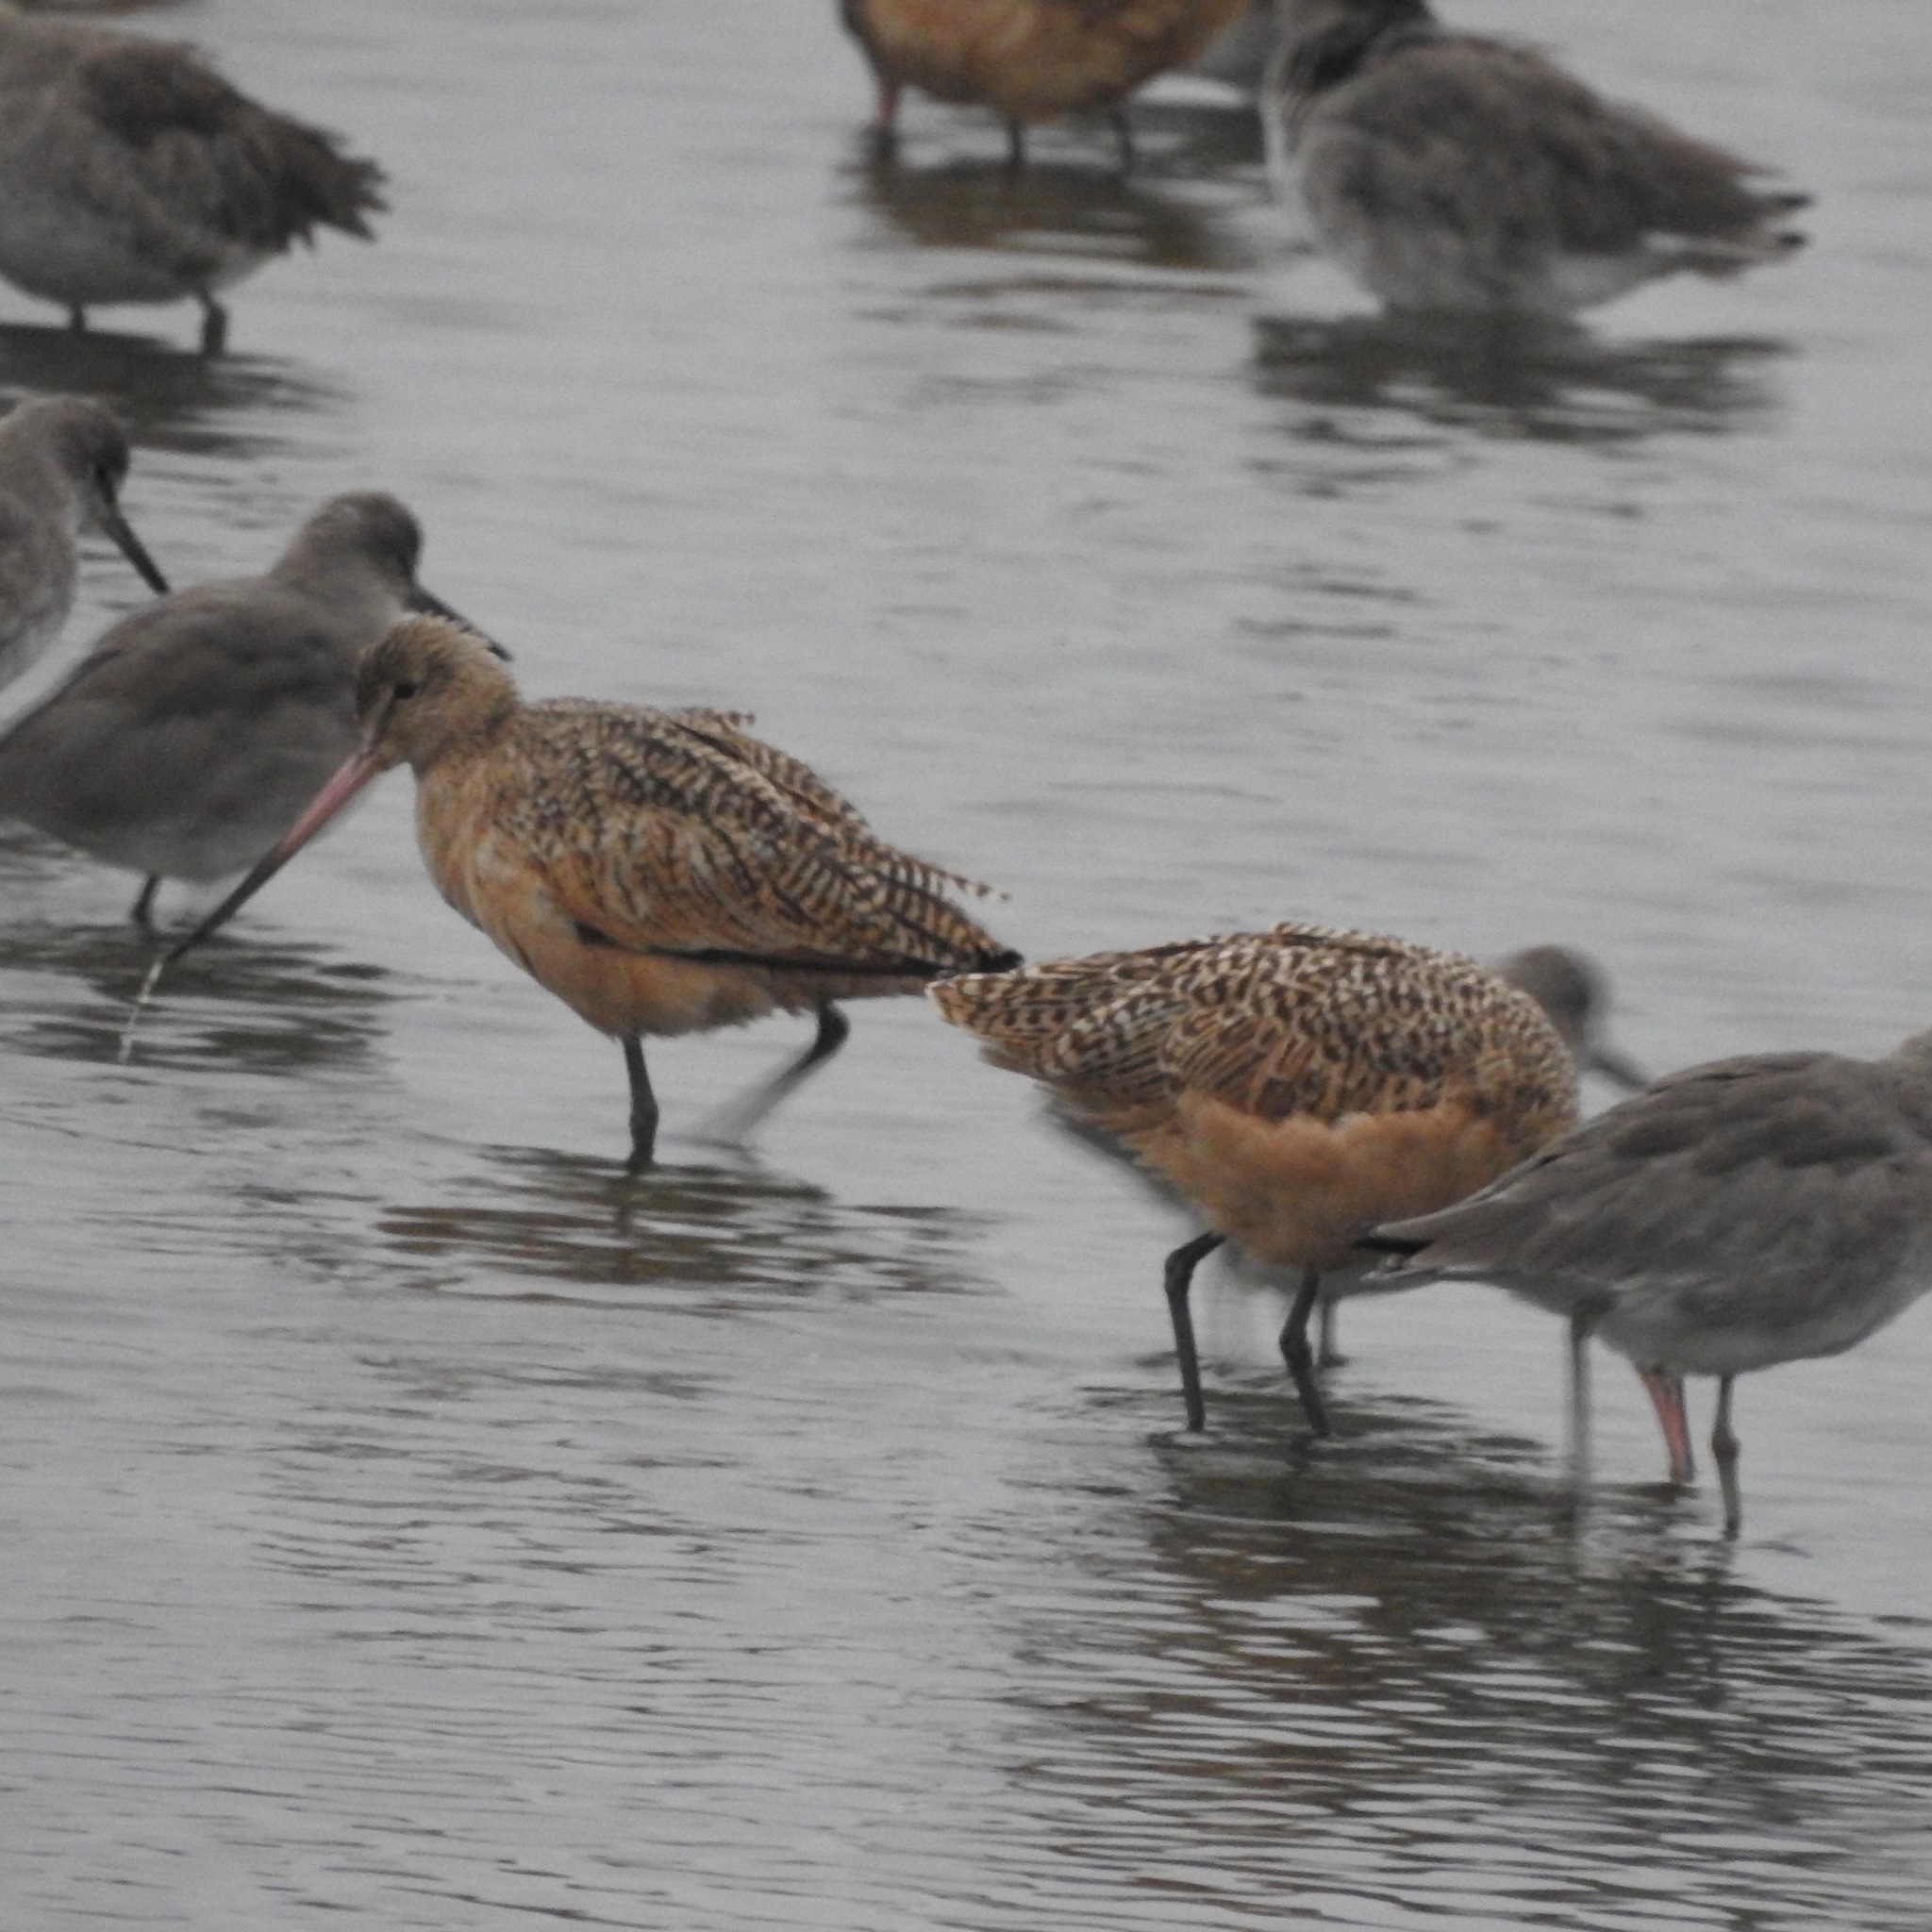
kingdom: Animalia
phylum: Chordata
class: Aves
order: Charadriiformes
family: Scolopacidae
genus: Limosa
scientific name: Limosa fedoa
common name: Marbled godwit
